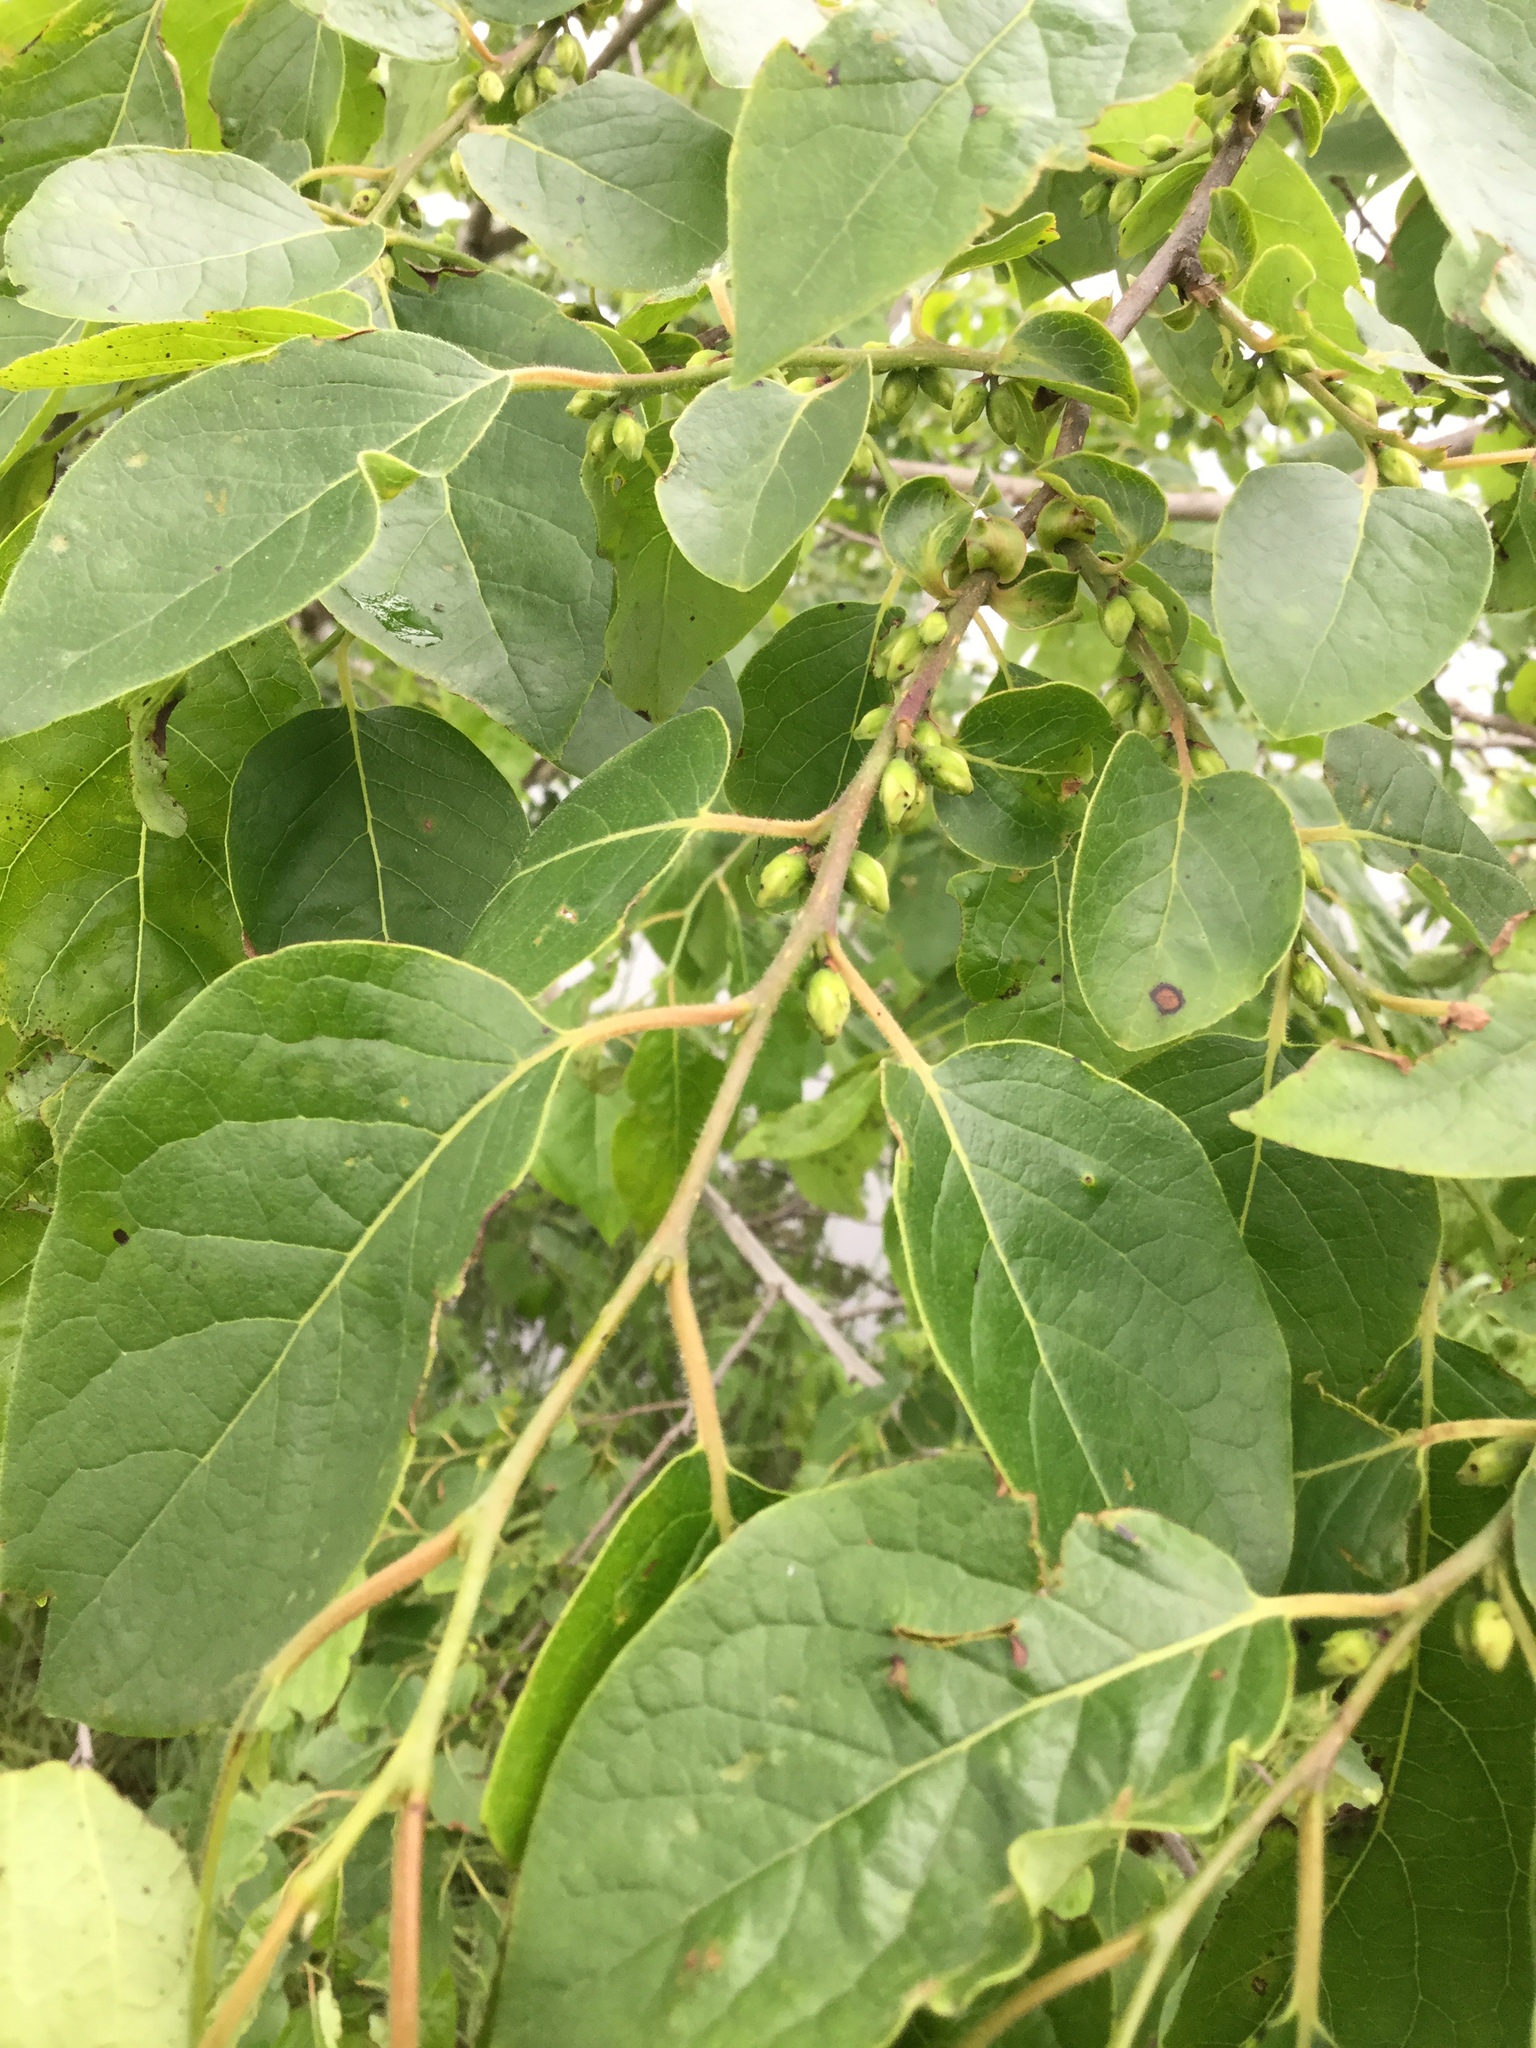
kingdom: Plantae
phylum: Tracheophyta
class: Magnoliopsida
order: Ericales
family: Ebenaceae
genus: Diospyros
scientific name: Diospyros virginiana
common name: Persimmon
